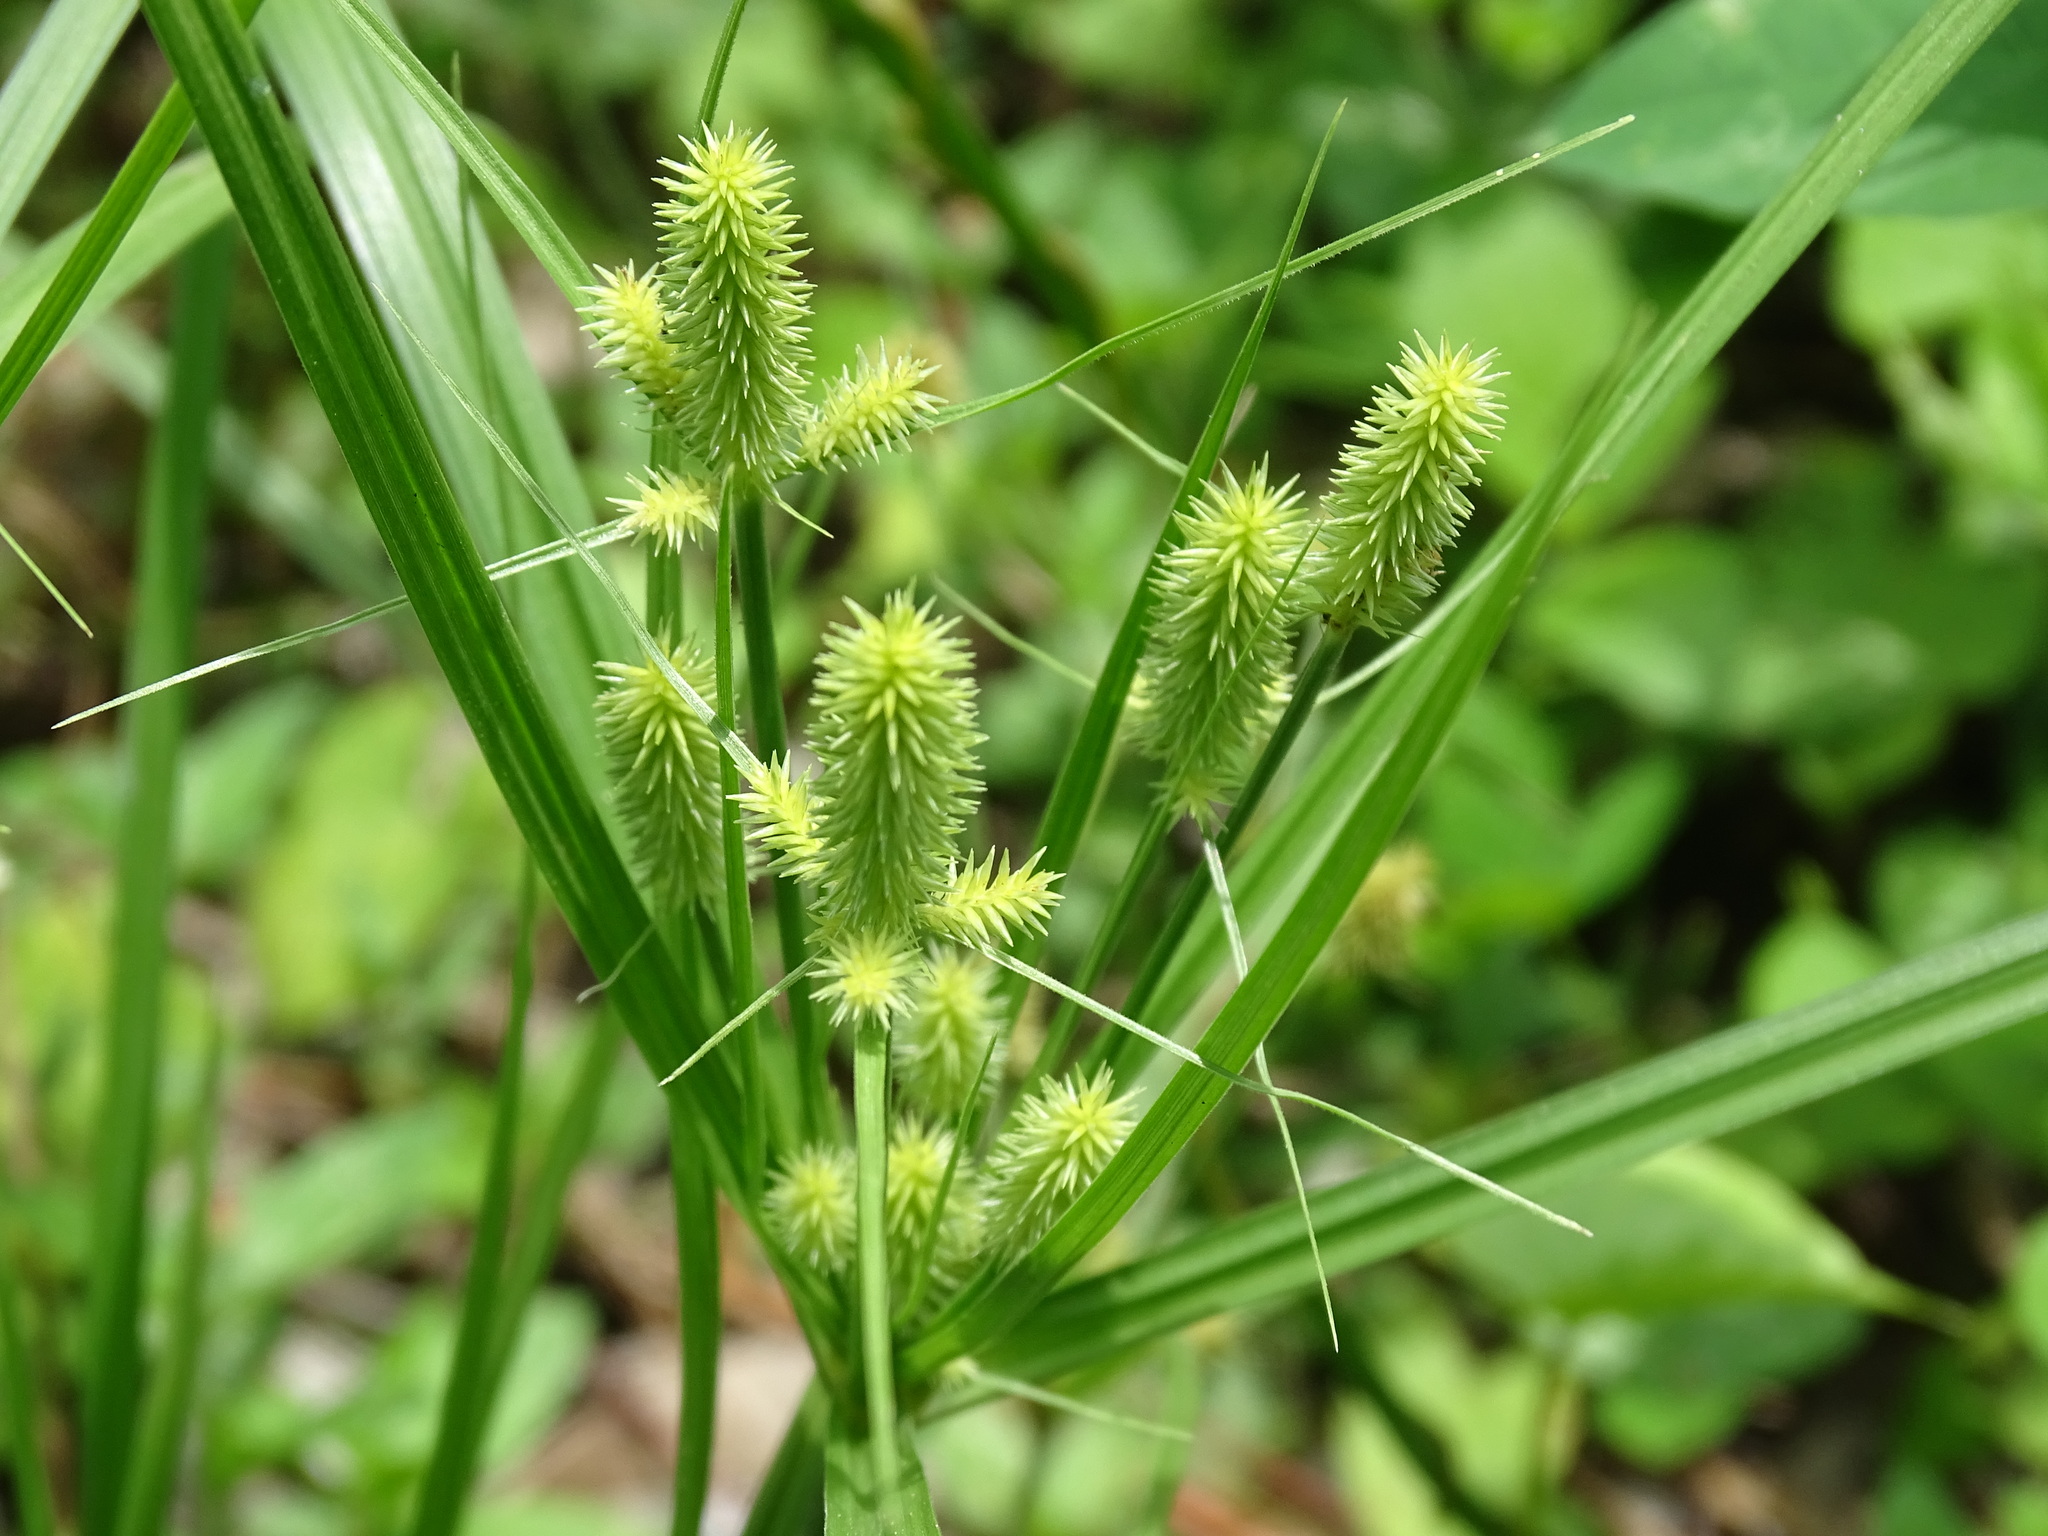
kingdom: Plantae
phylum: Tracheophyta
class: Liliopsida
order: Poales
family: Cyperaceae
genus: Cyperus
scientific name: Cyperus mutisii
